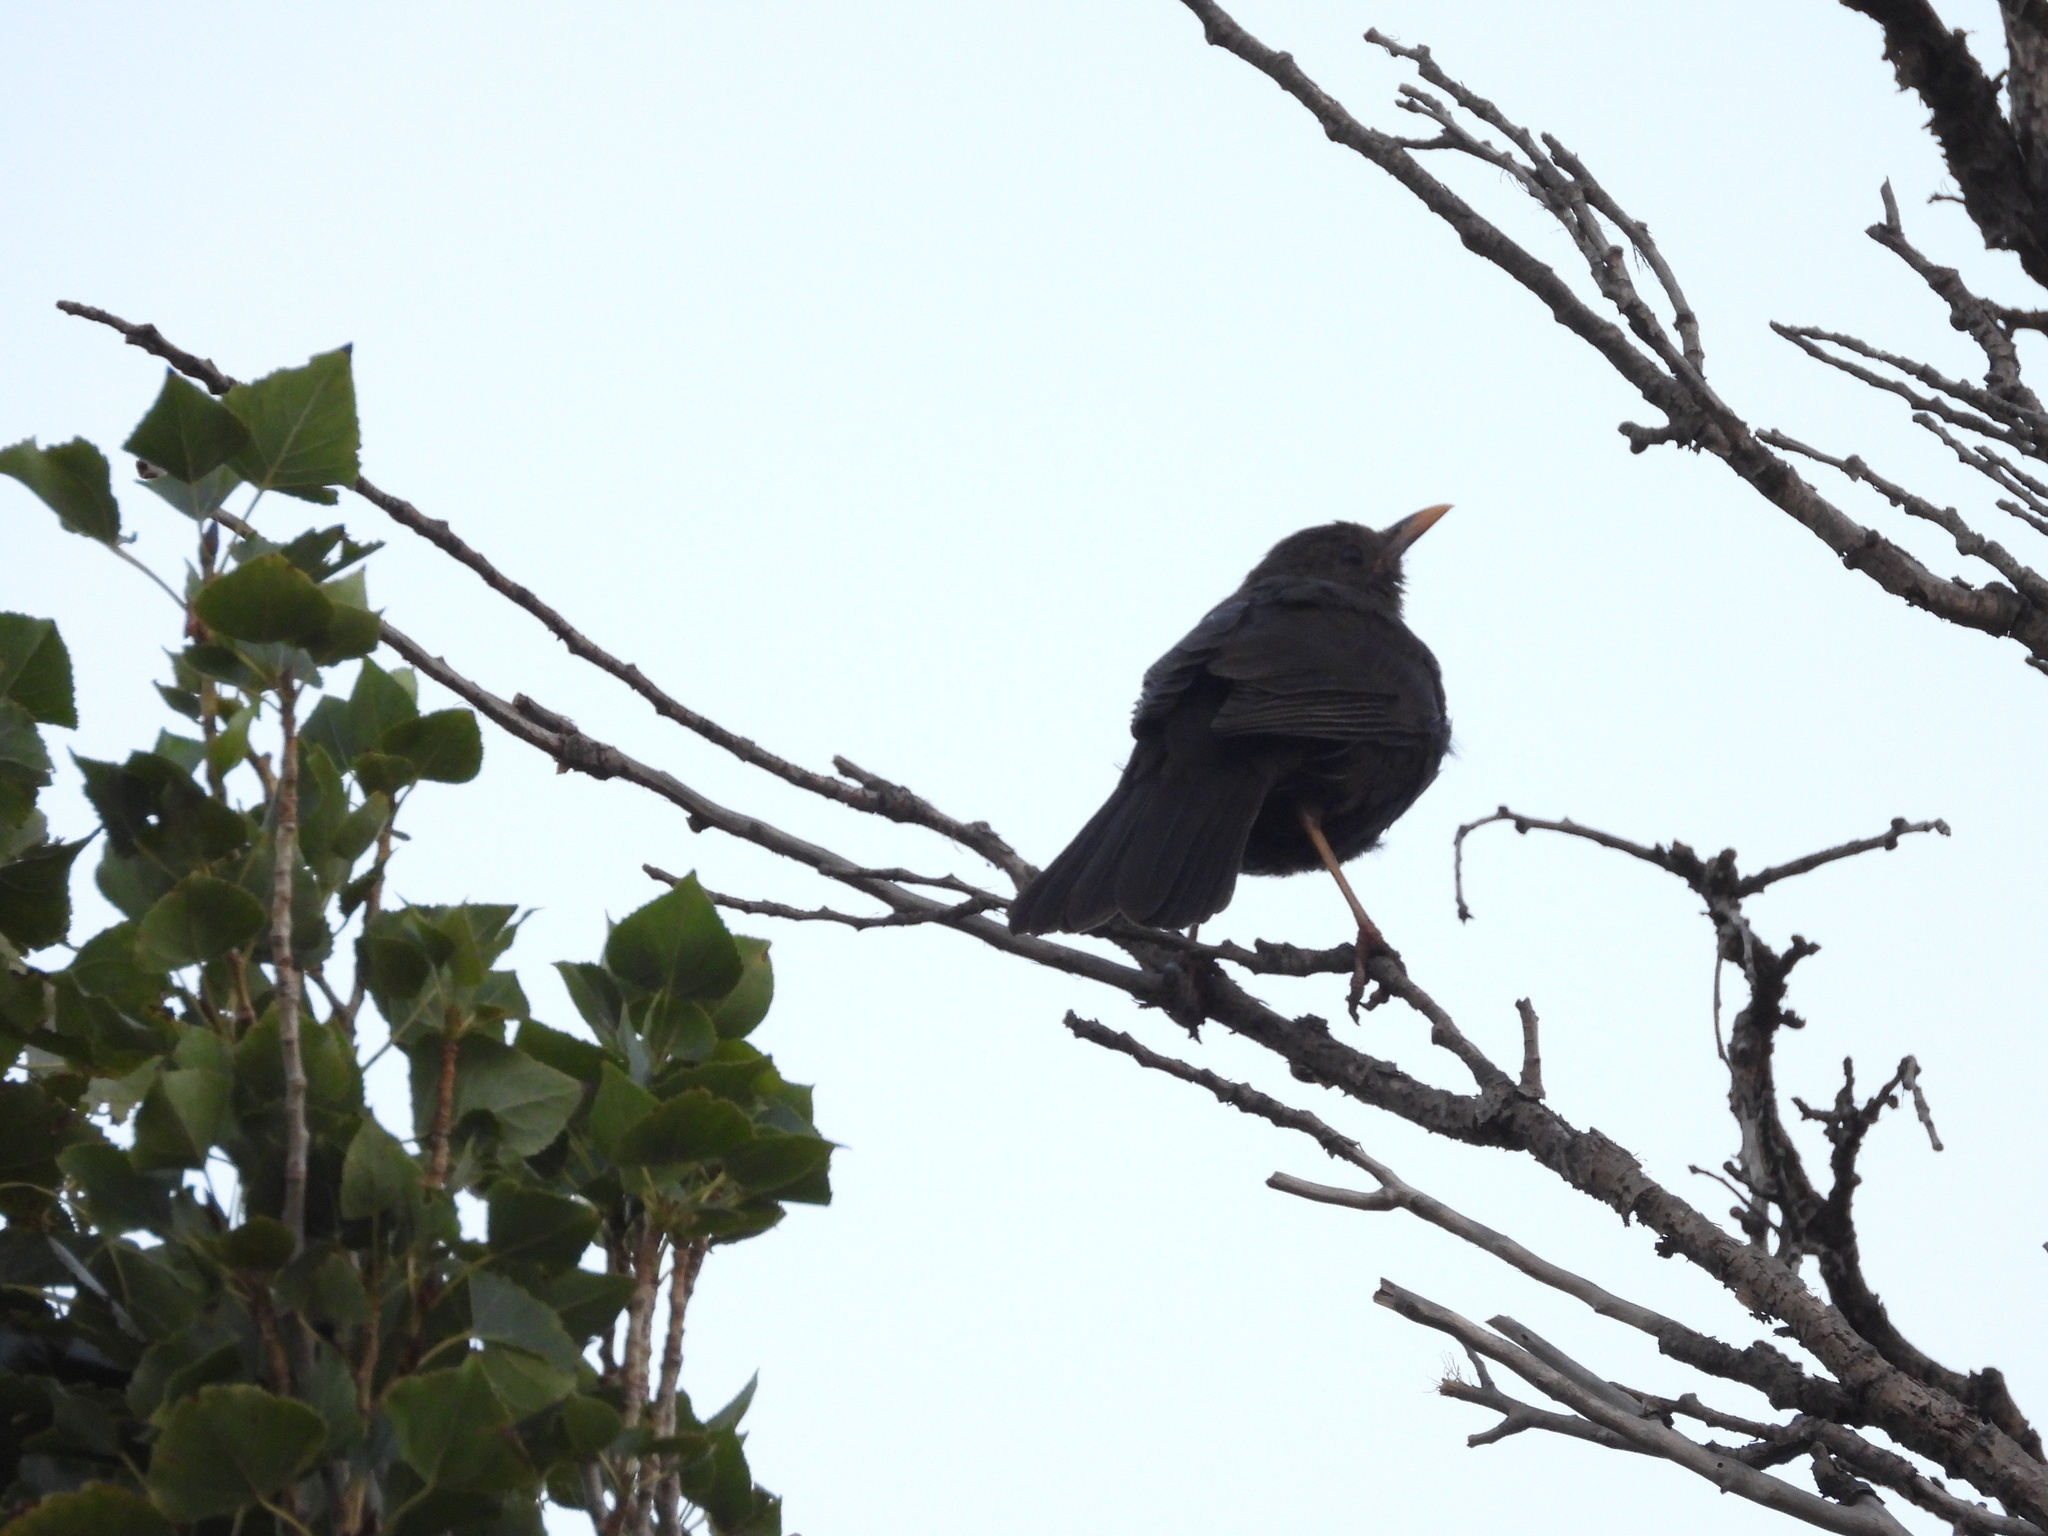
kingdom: Animalia
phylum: Chordata
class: Aves
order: Passeriformes
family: Turdidae
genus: Turdus
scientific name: Turdus chiguanco
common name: Chiguanco thrush
